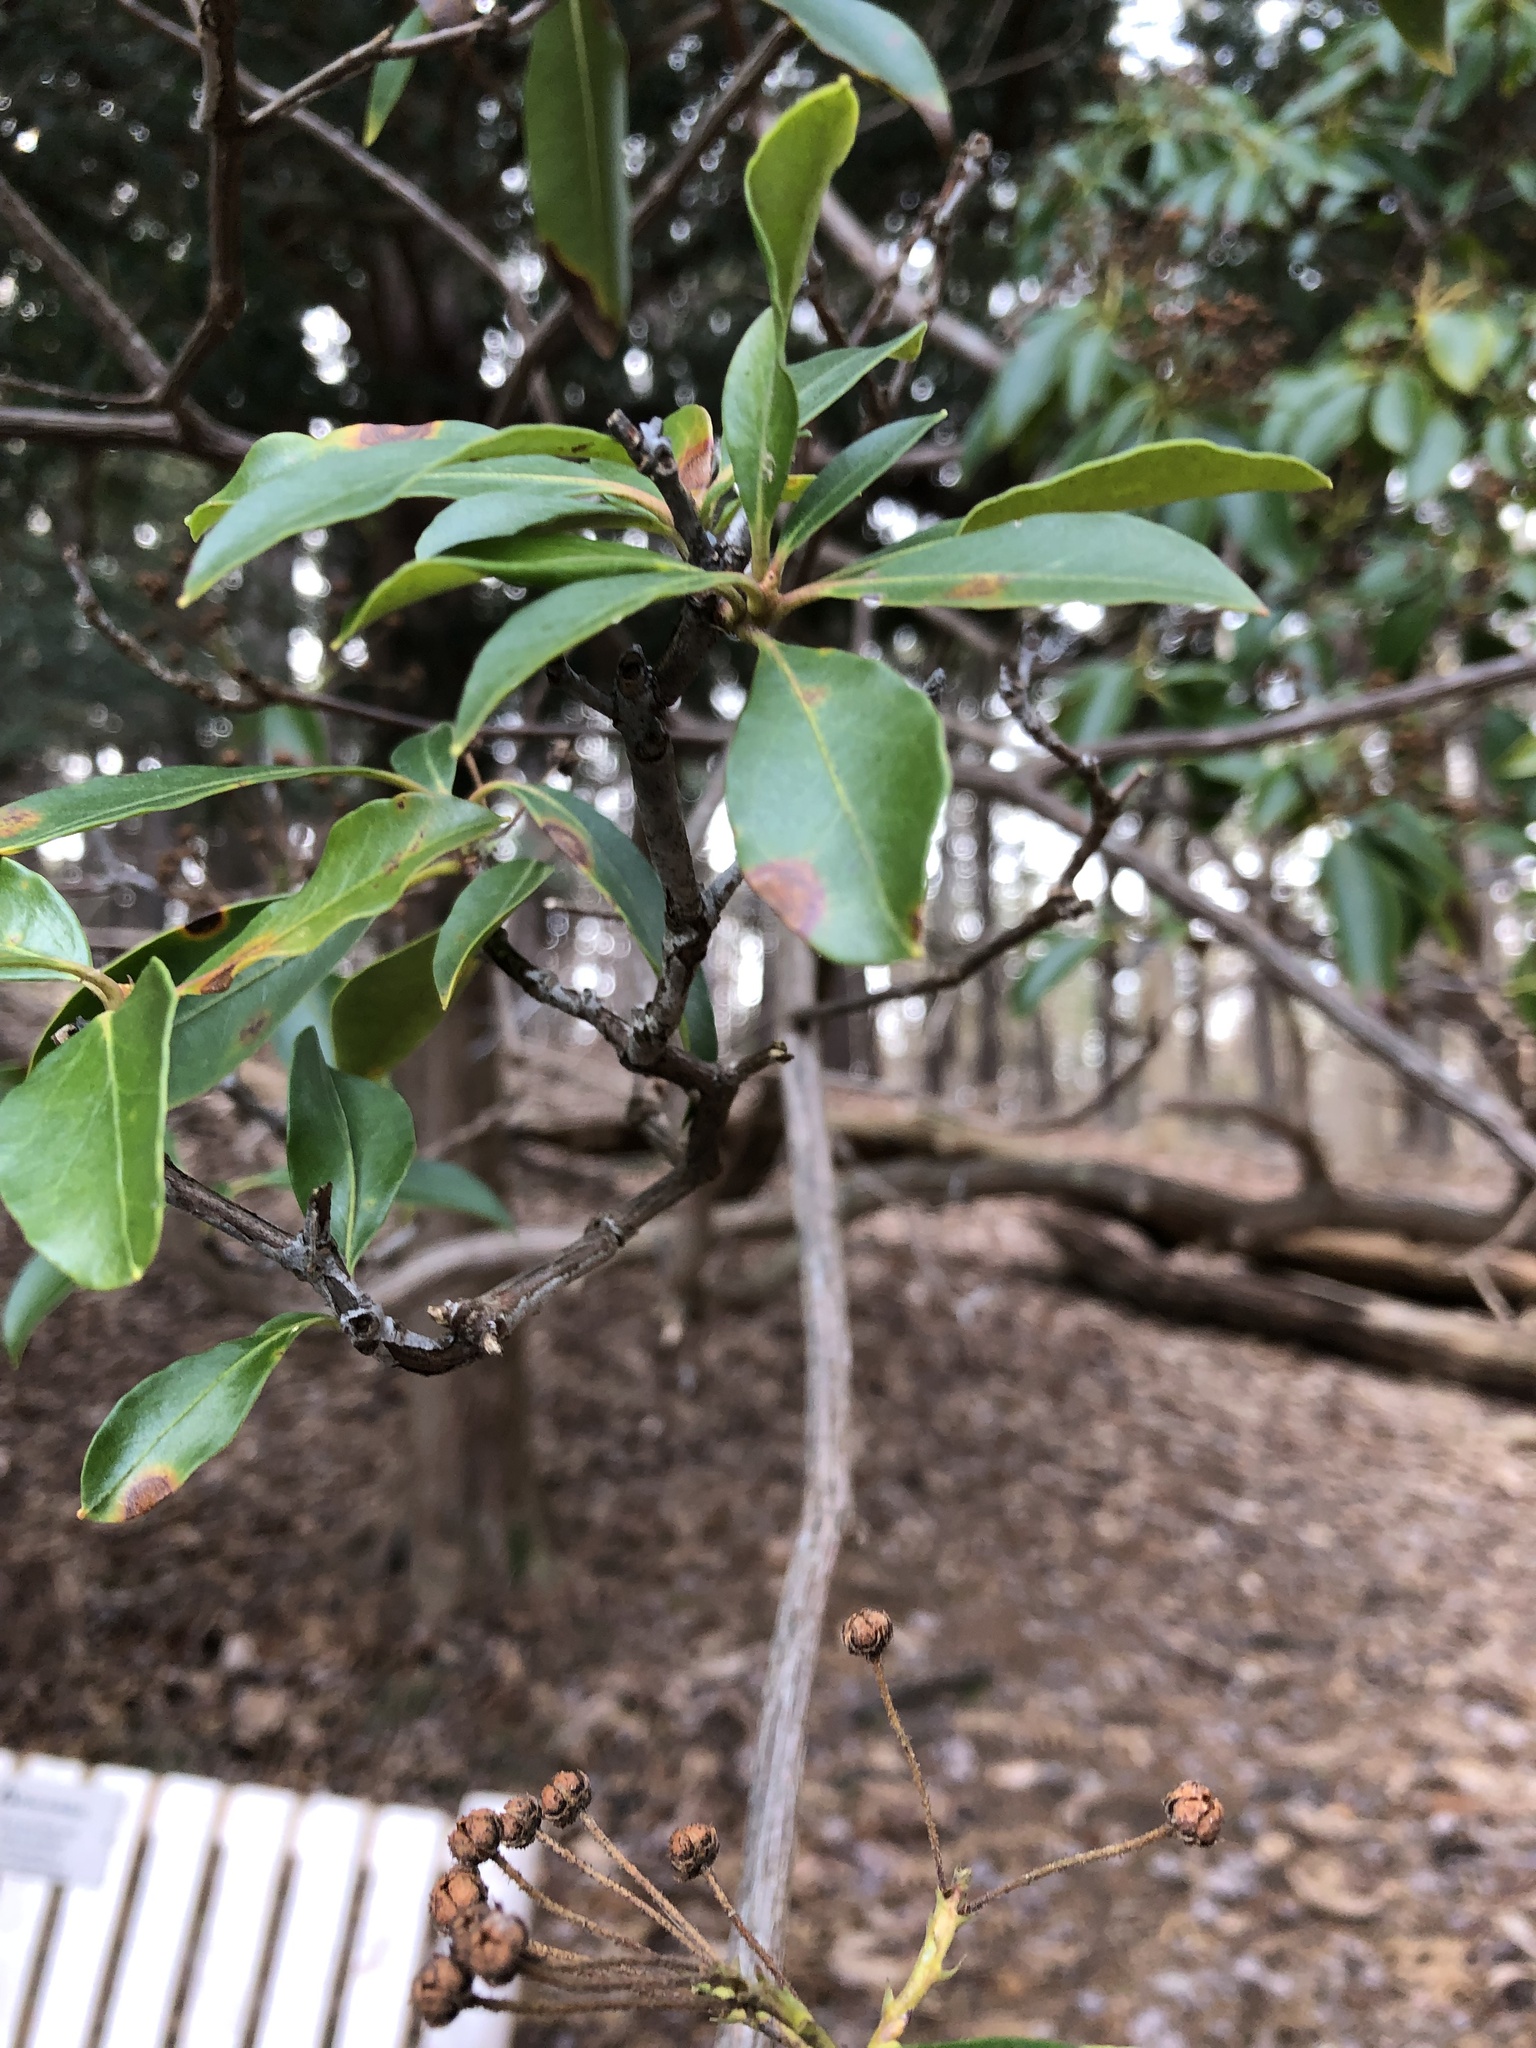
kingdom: Plantae
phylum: Tracheophyta
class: Magnoliopsida
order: Ericales
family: Ericaceae
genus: Kalmia
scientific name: Kalmia latifolia
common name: Mountain-laurel
